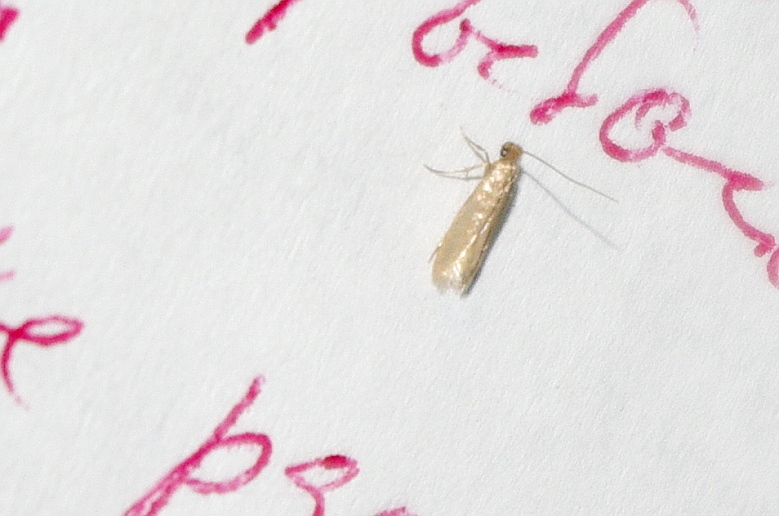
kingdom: Animalia
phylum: Arthropoda
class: Insecta
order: Lepidoptera
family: Tineidae
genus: Tineola
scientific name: Tineola bisselliella
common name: Webbing clothes moth
